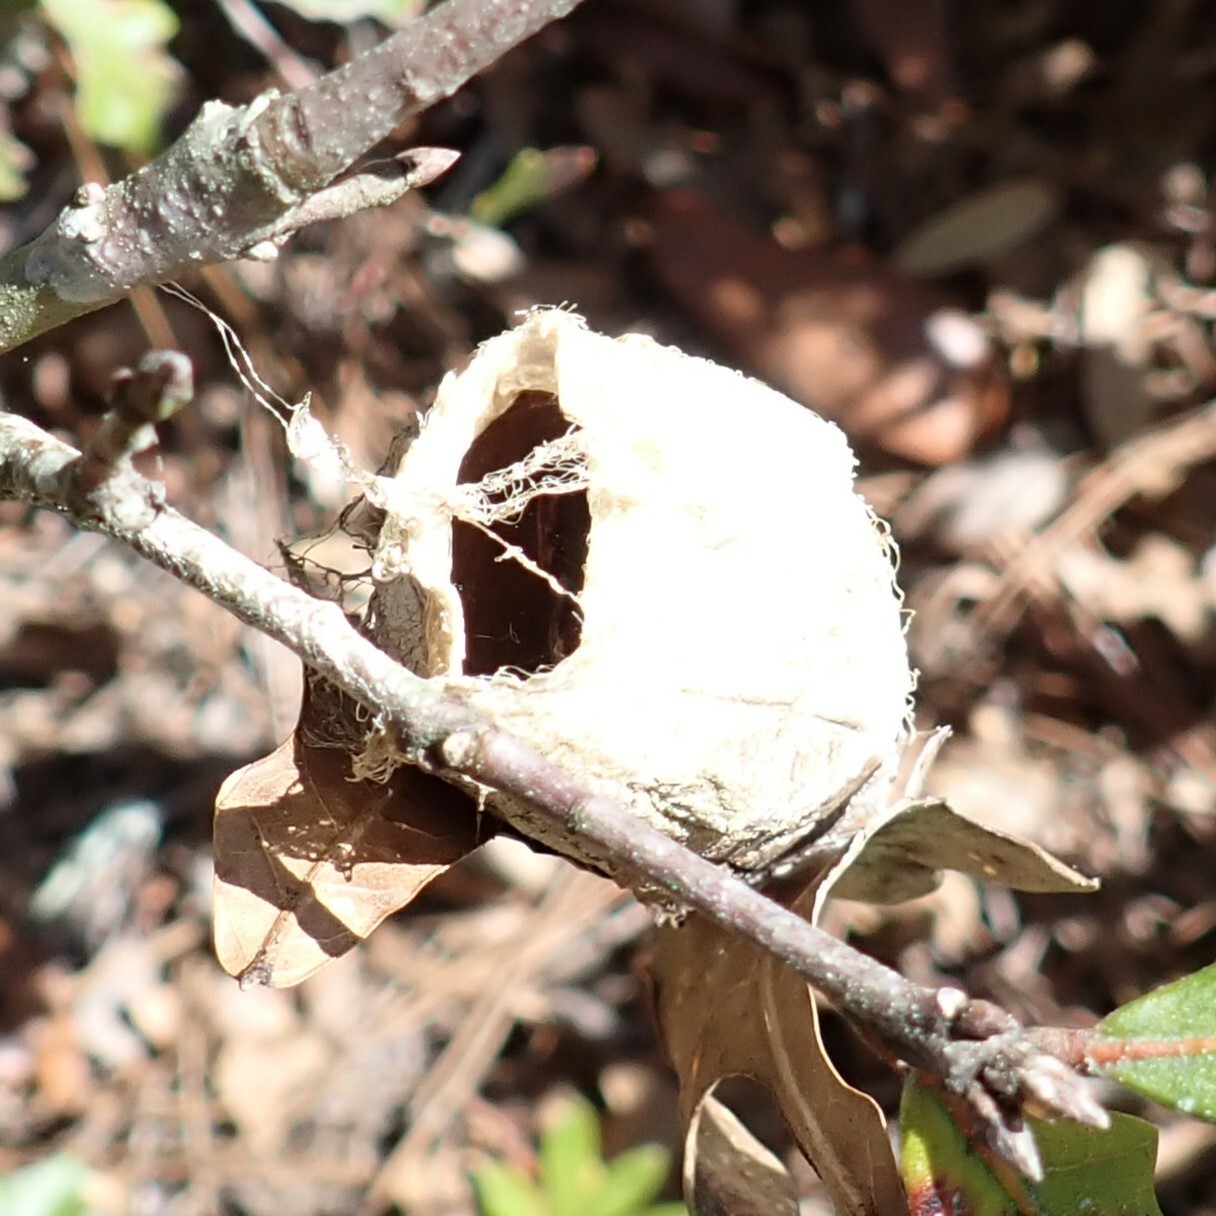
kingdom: Animalia
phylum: Arthropoda
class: Insecta
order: Lepidoptera
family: Saturniidae
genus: Antheraea
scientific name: Antheraea polyphemus
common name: Polyphemus moth
